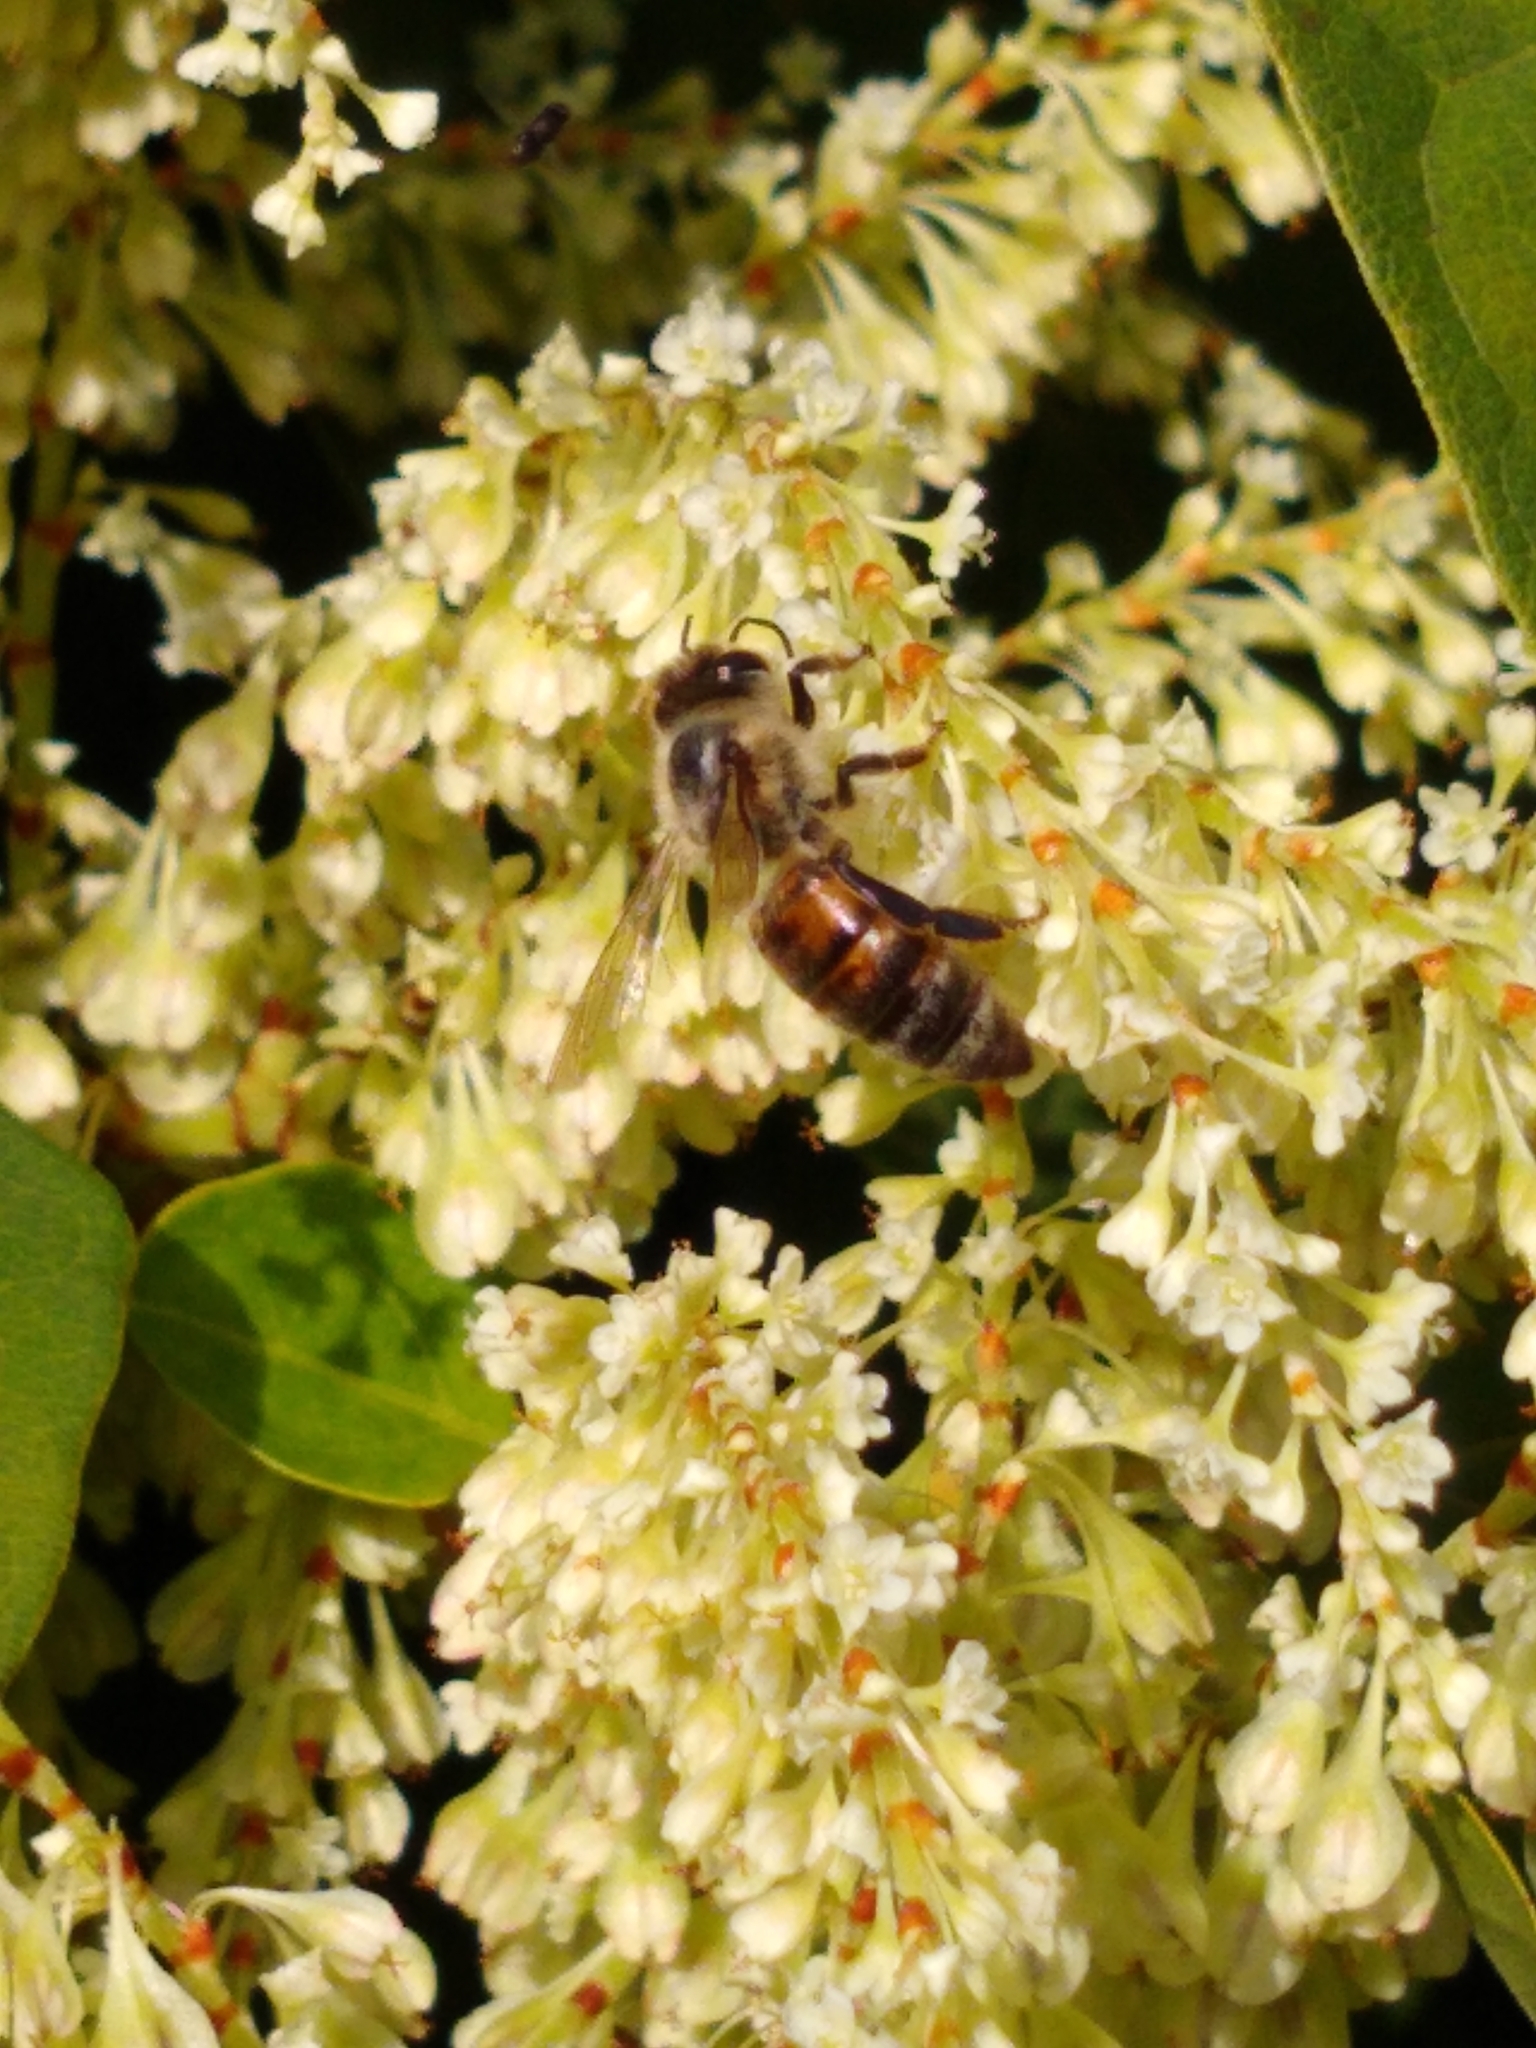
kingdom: Animalia
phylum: Arthropoda
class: Insecta
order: Hymenoptera
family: Apidae
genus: Apis
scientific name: Apis mellifera
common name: Honey bee
